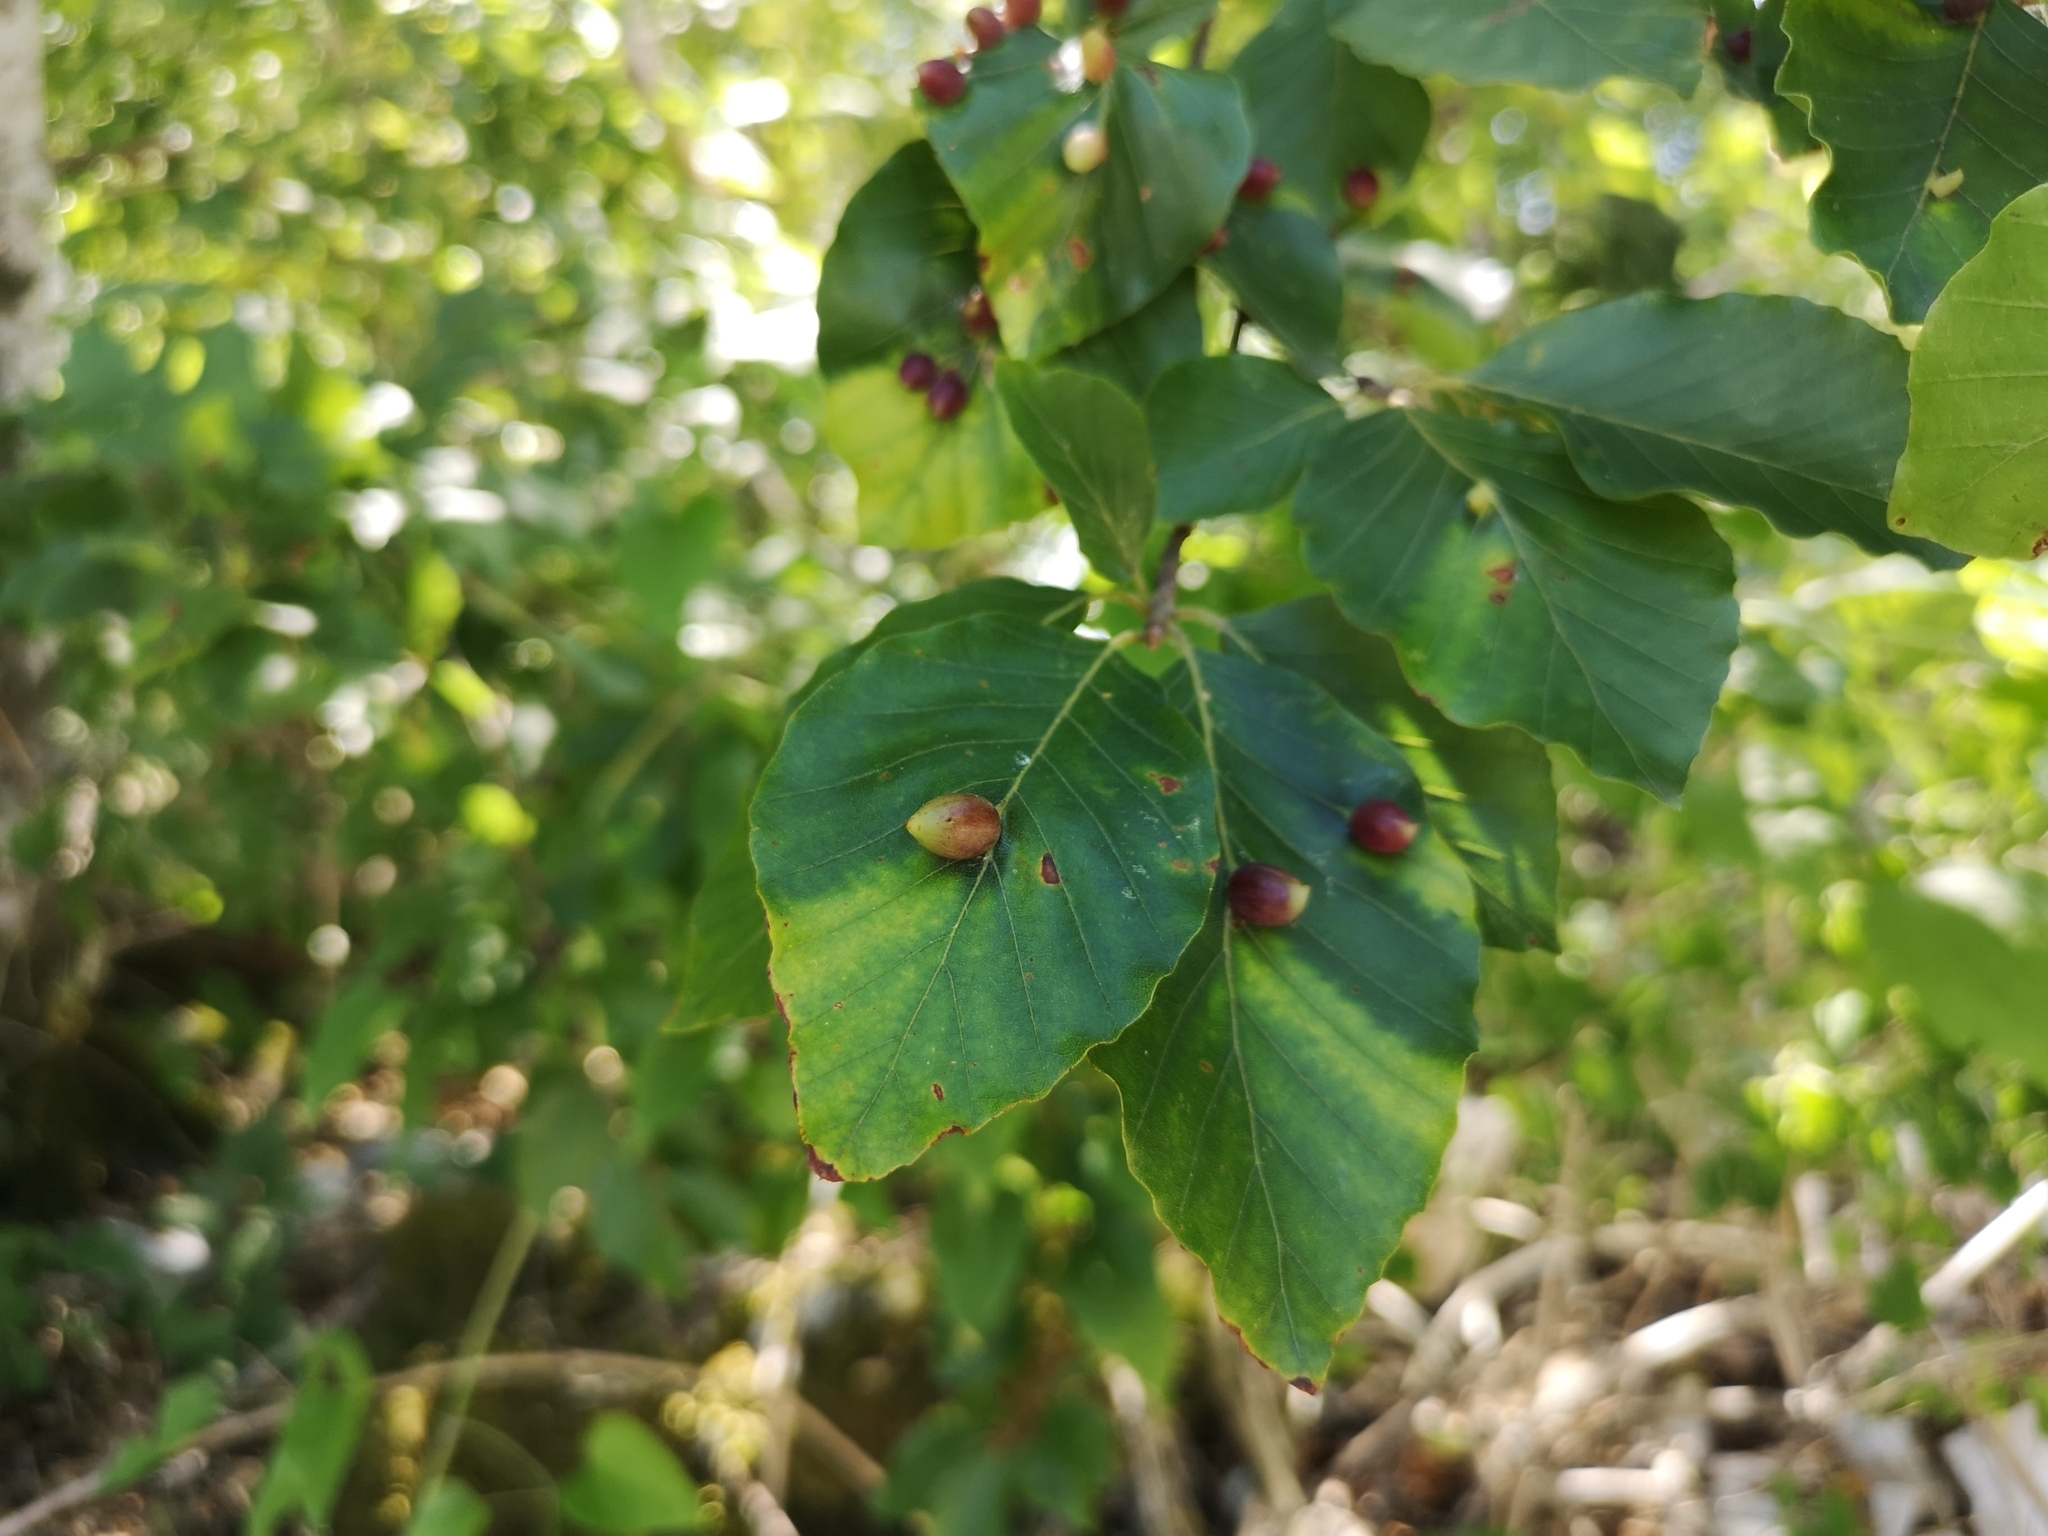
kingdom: Animalia
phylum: Arthropoda
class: Insecta
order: Diptera
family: Cecidomyiidae
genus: Mikiola
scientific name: Mikiola fagi
